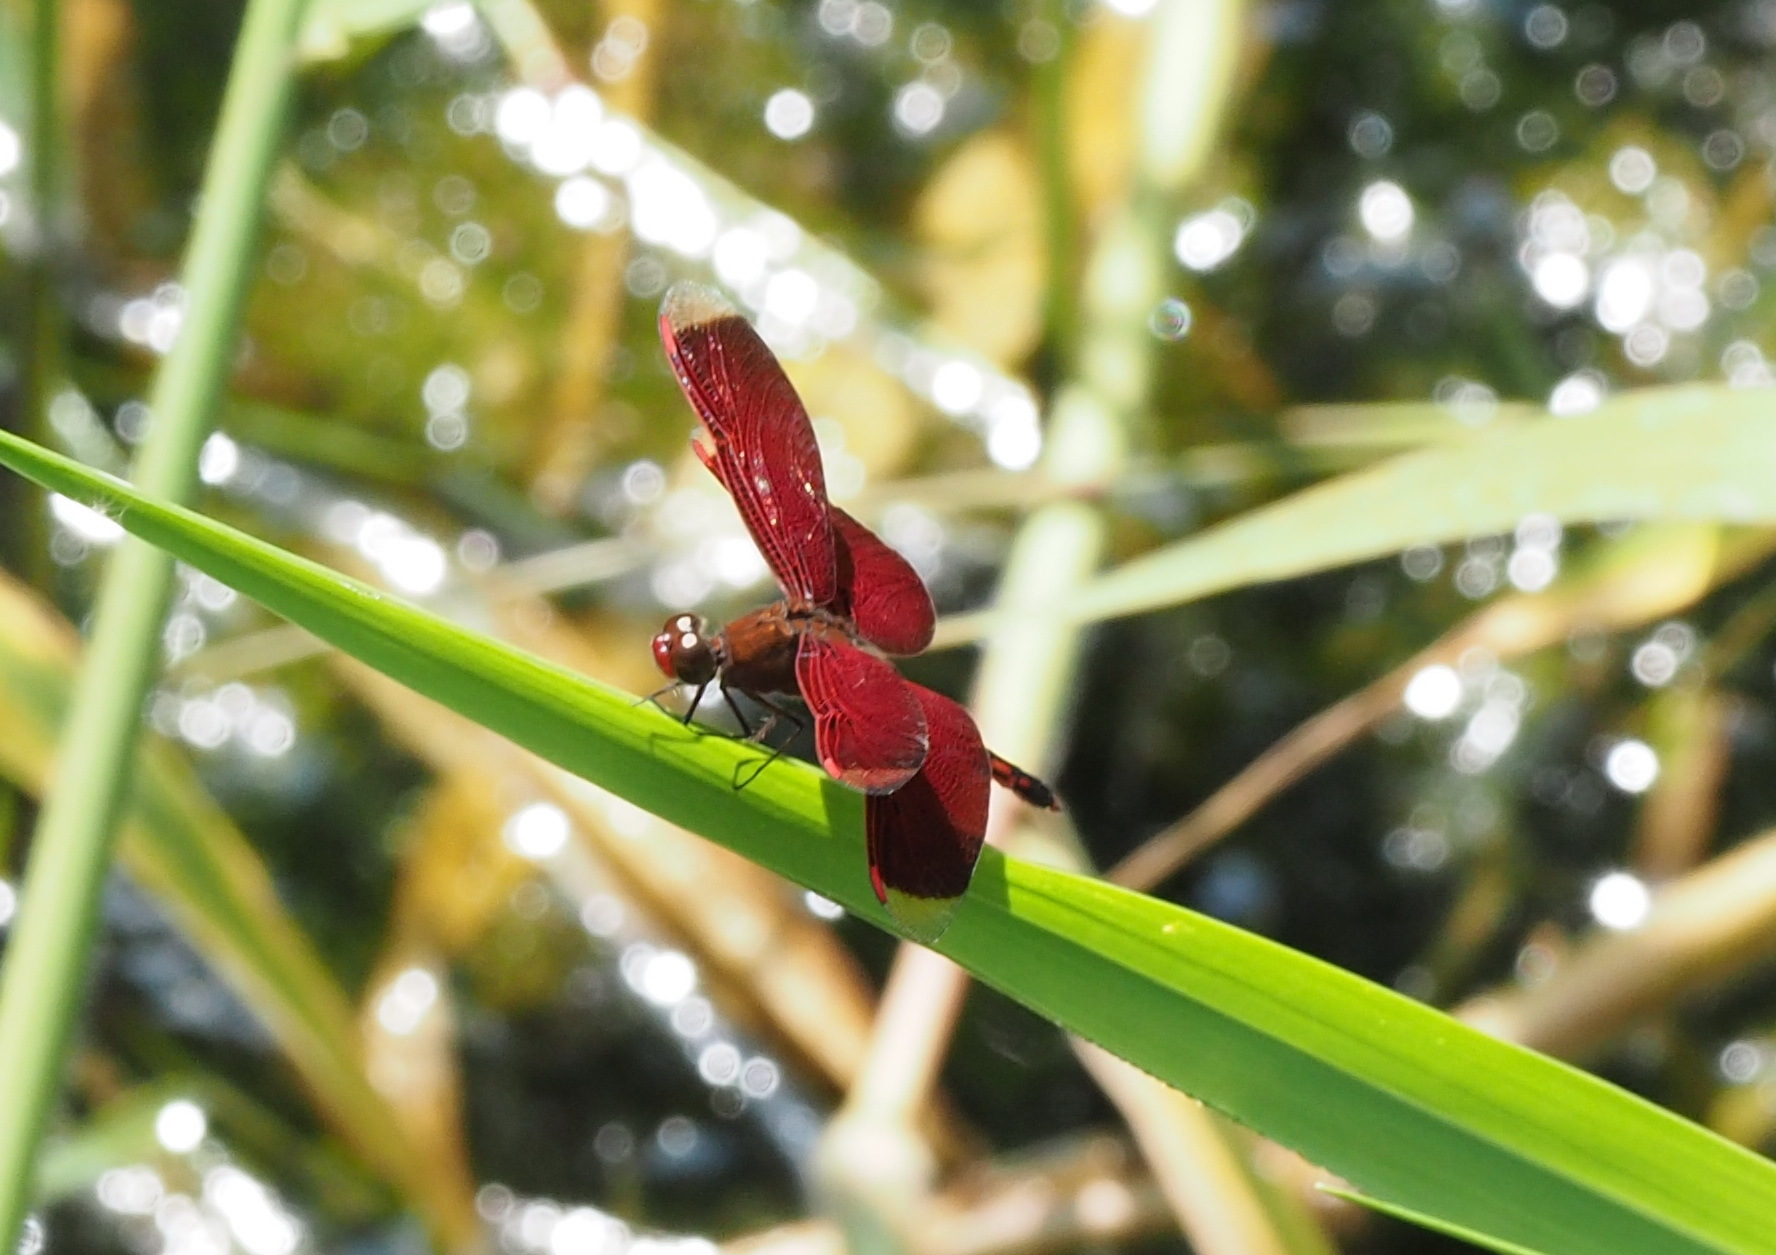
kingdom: Animalia
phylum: Arthropoda
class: Insecta
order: Odonata
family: Libellulidae
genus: Neurothemis
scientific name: Neurothemis taiwanensis
